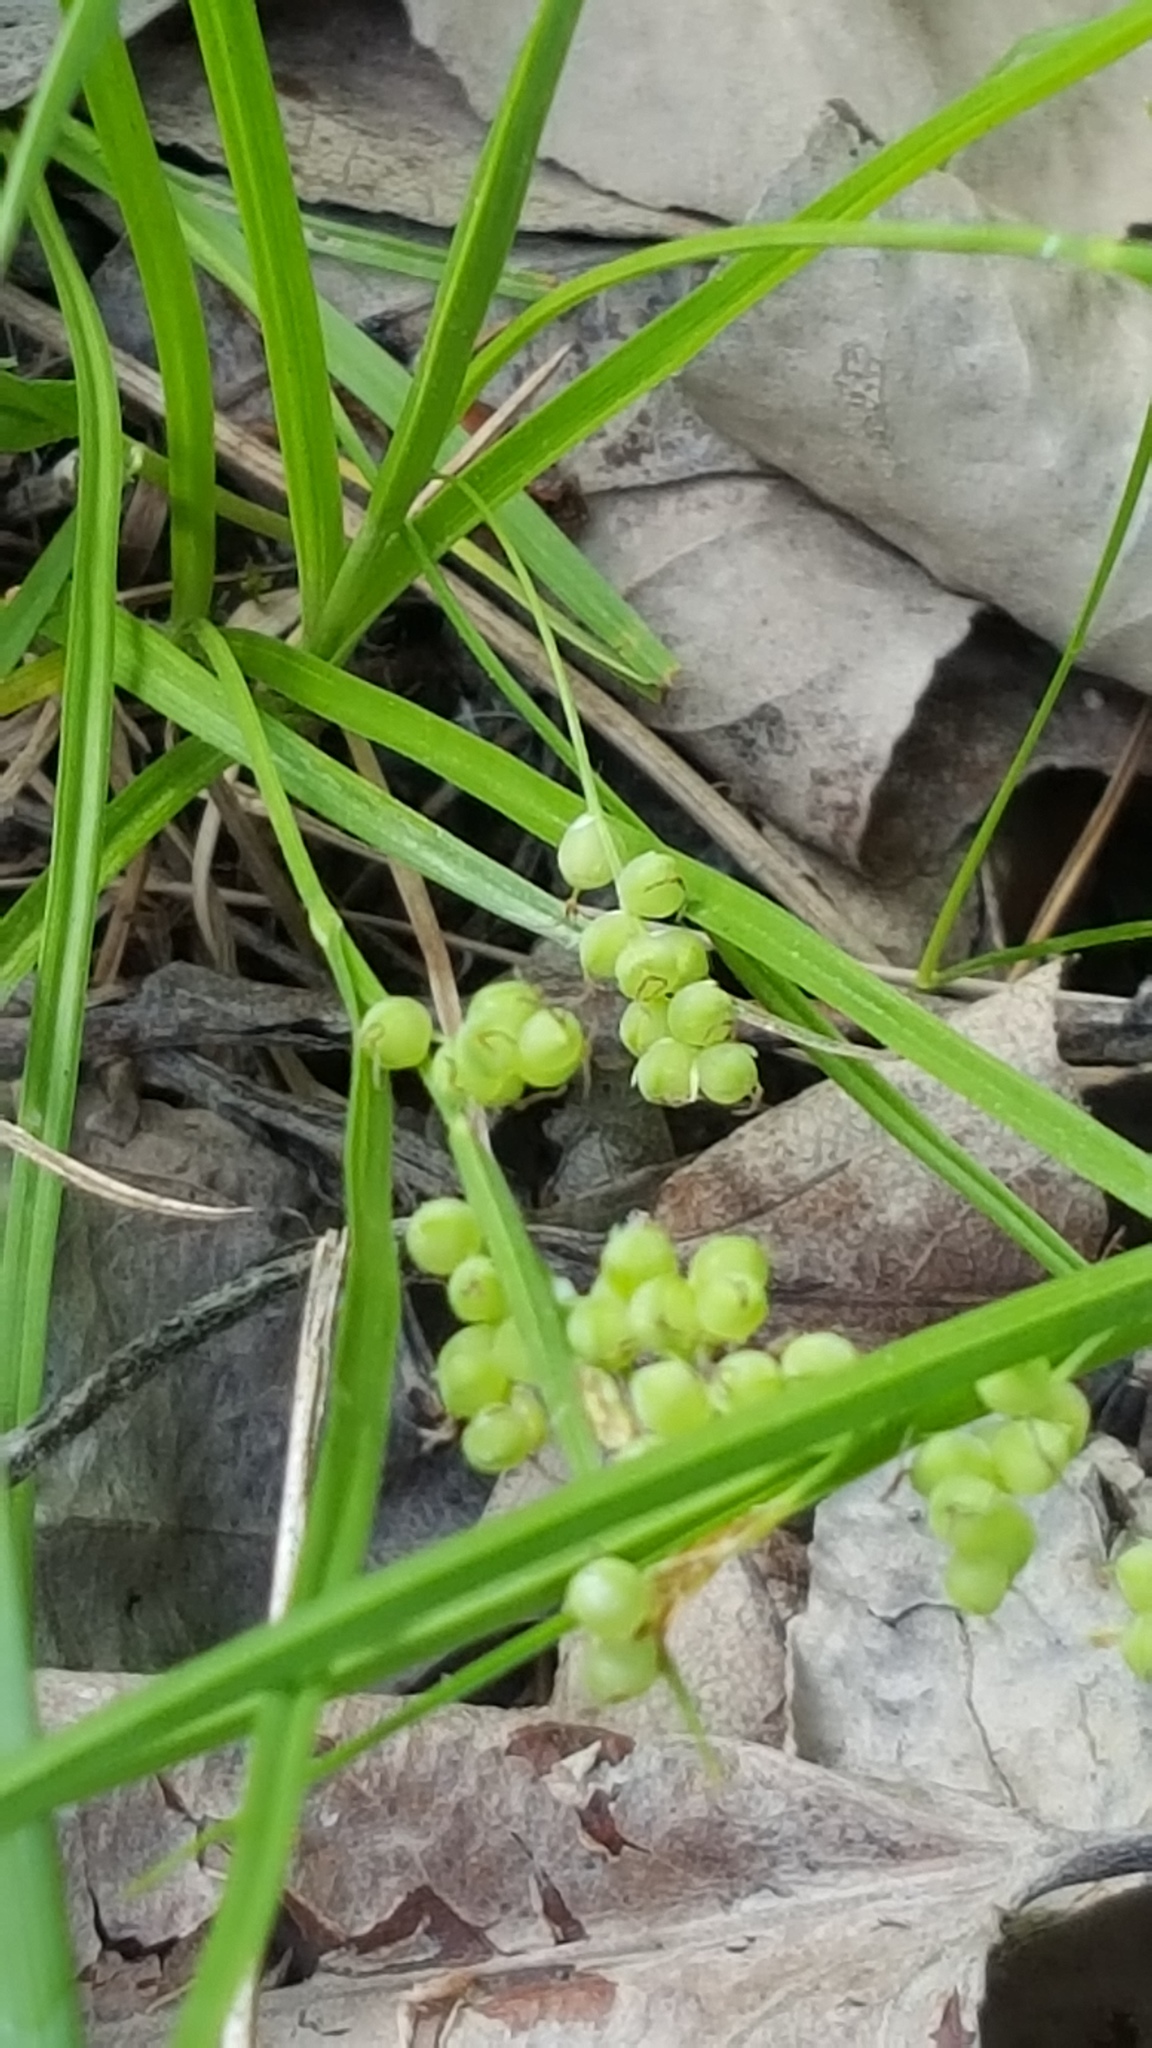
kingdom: Plantae
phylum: Tracheophyta
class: Liliopsida
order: Poales
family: Cyperaceae
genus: Carex
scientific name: Carex aurea
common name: Golden sedge
